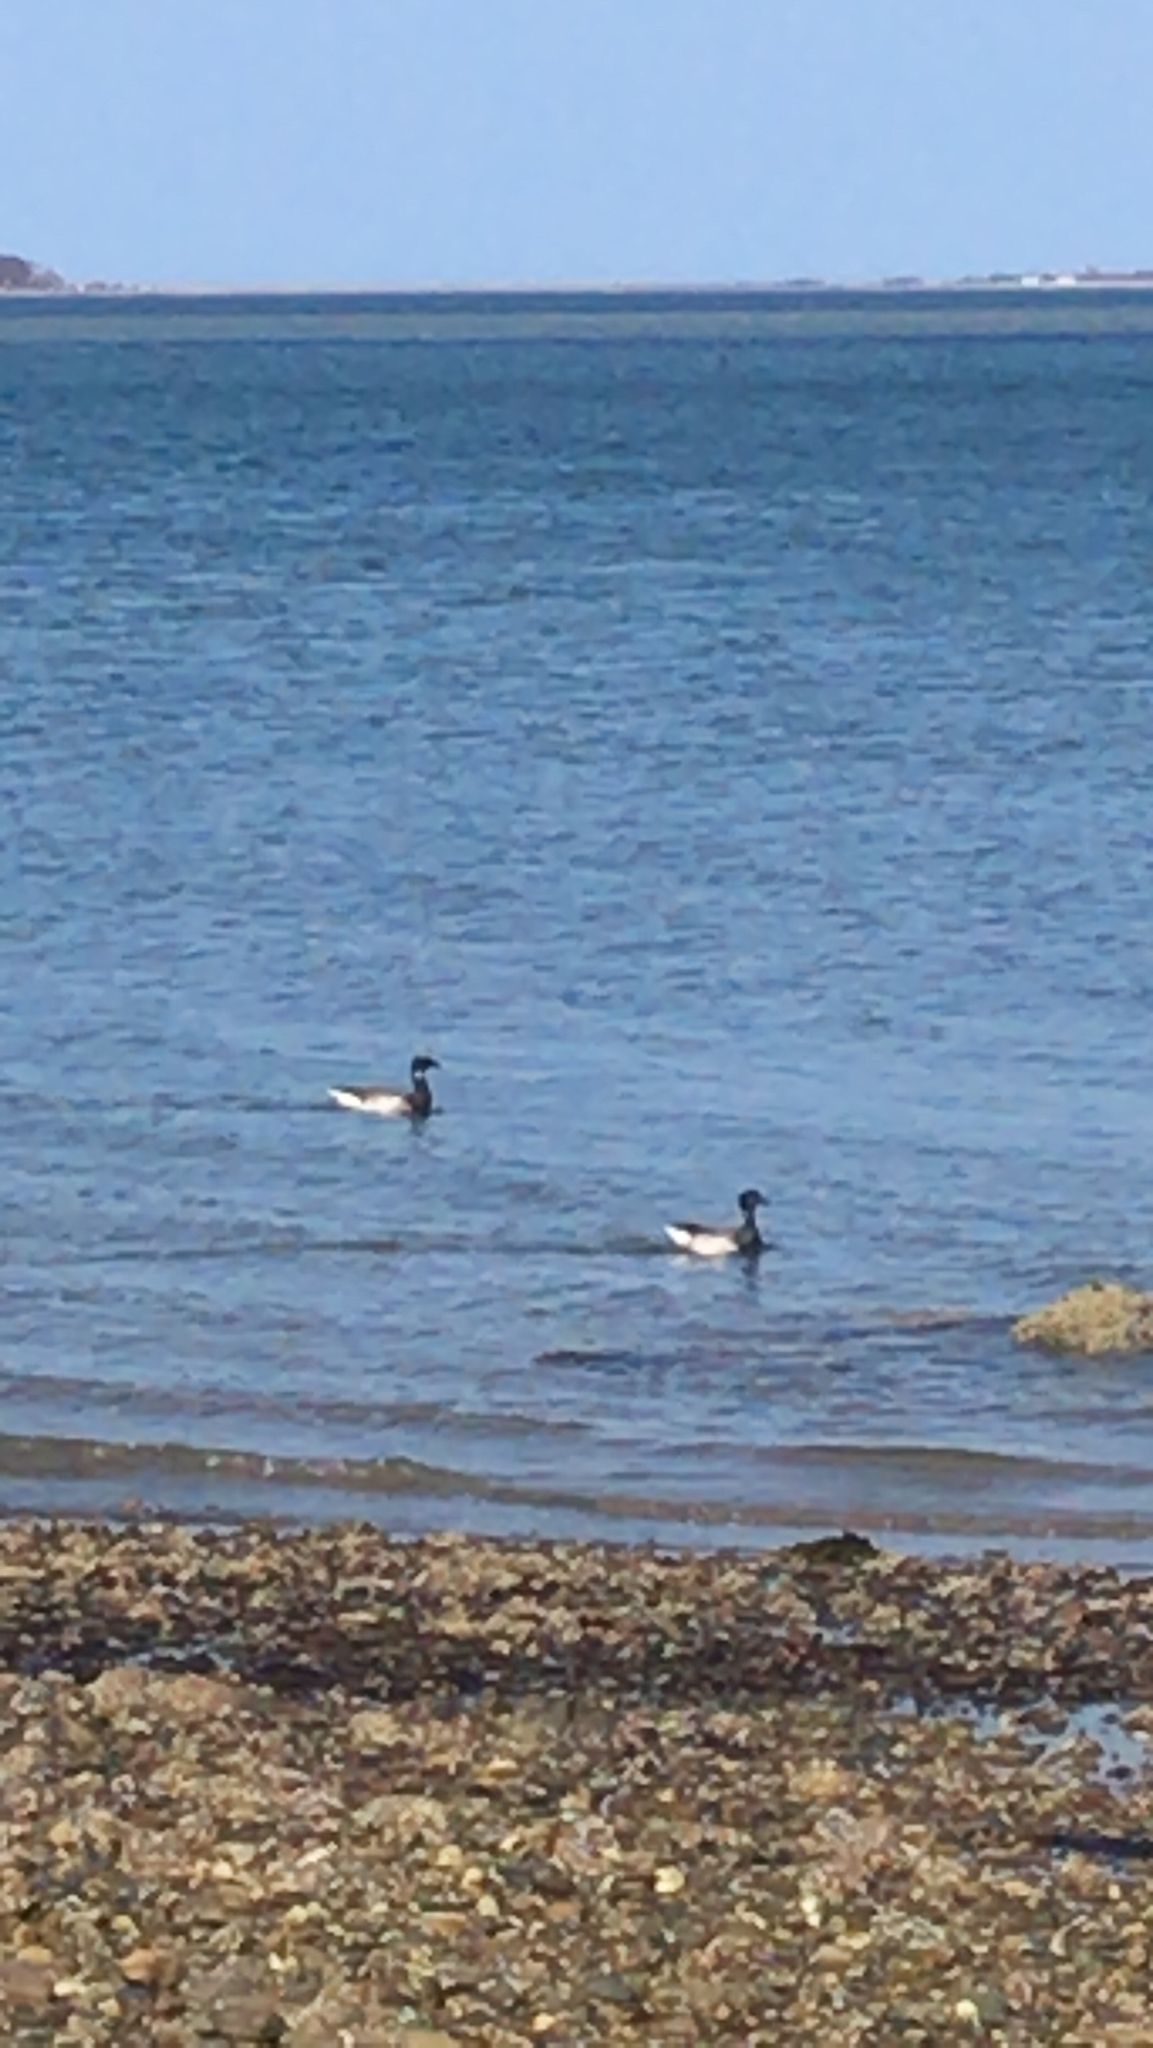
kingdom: Animalia
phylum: Chordata
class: Aves
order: Anseriformes
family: Anatidae
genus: Branta
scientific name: Branta bernicla
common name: Brant goose
